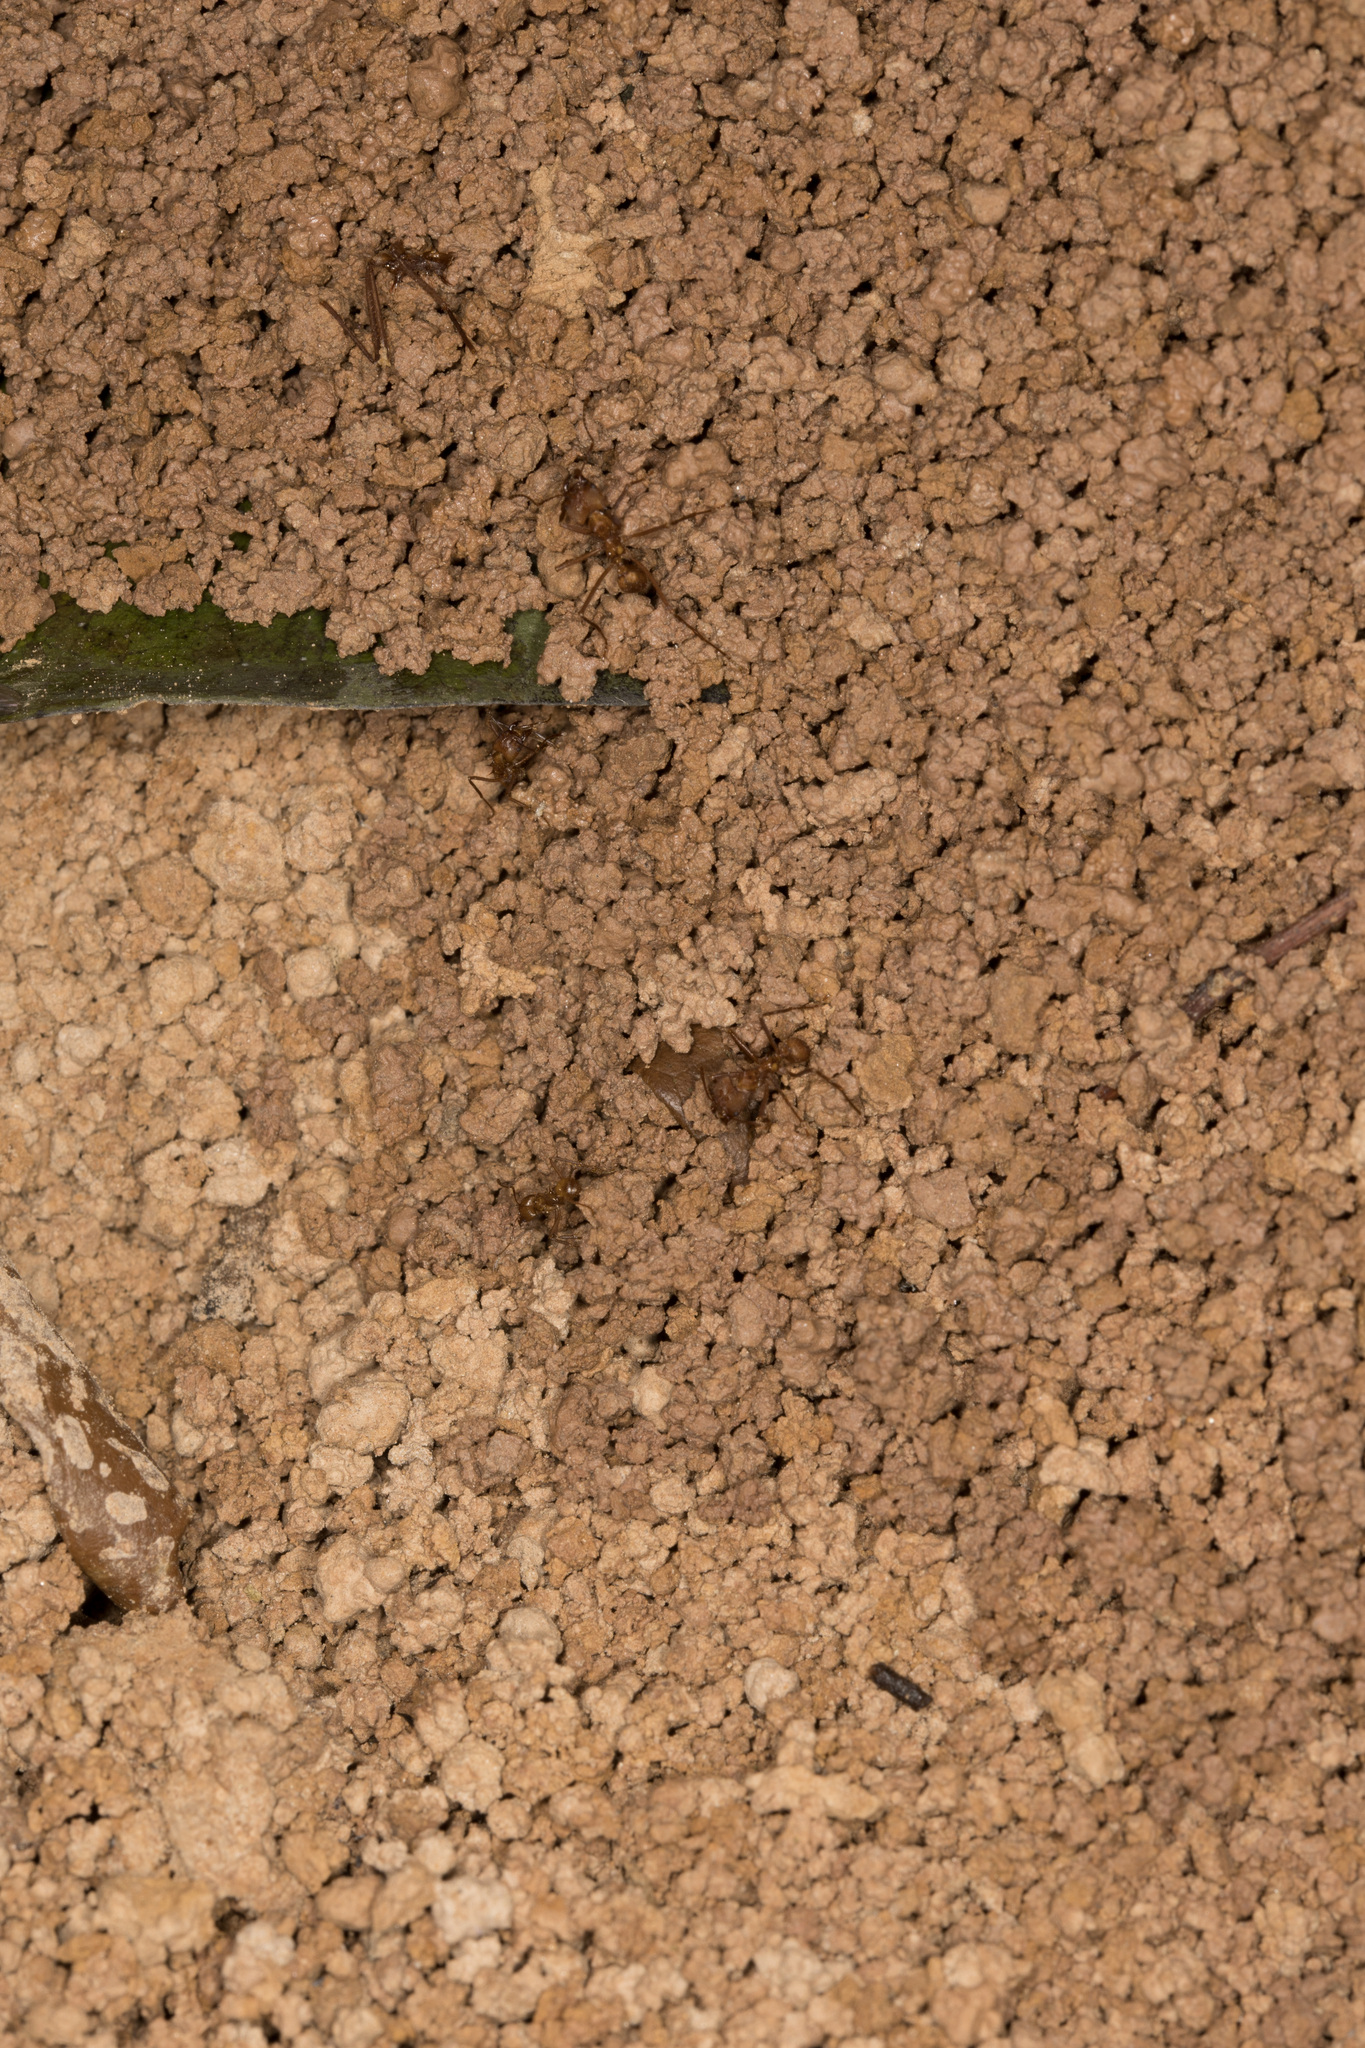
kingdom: Animalia
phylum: Arthropoda
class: Insecta
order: Hymenoptera
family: Formicidae
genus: Atta
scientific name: Atta cephalotes
